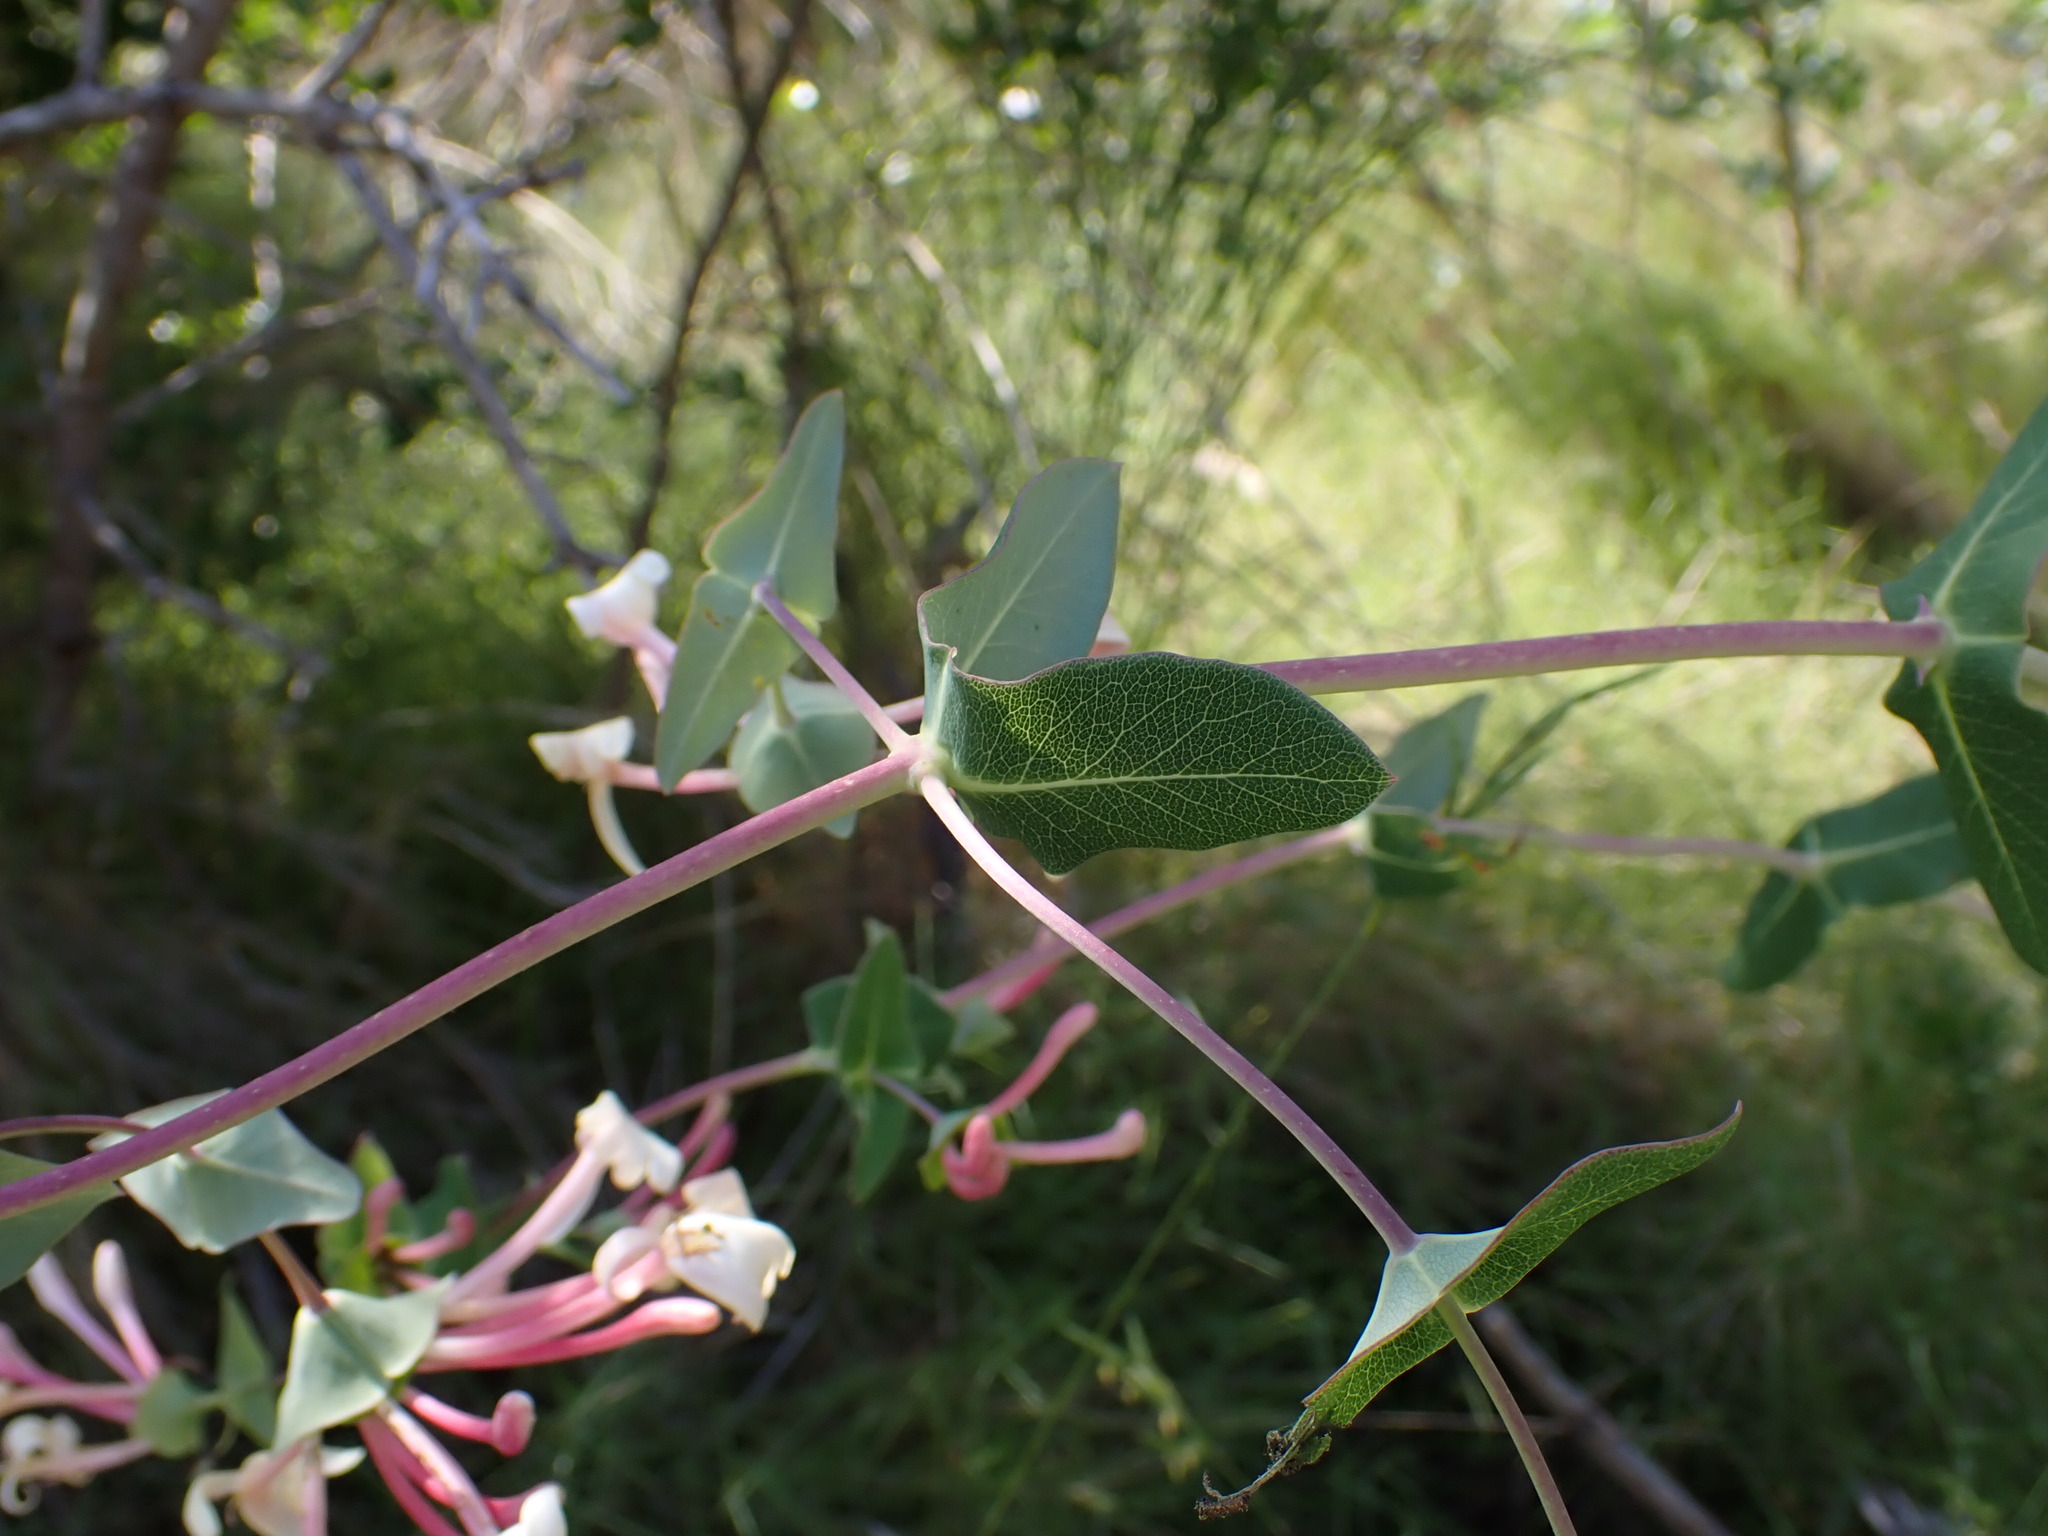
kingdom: Plantae
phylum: Tracheophyta
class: Magnoliopsida
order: Dipsacales
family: Caprifoliaceae
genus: Lonicera
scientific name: Lonicera implexa
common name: Minorca honeysuckle
